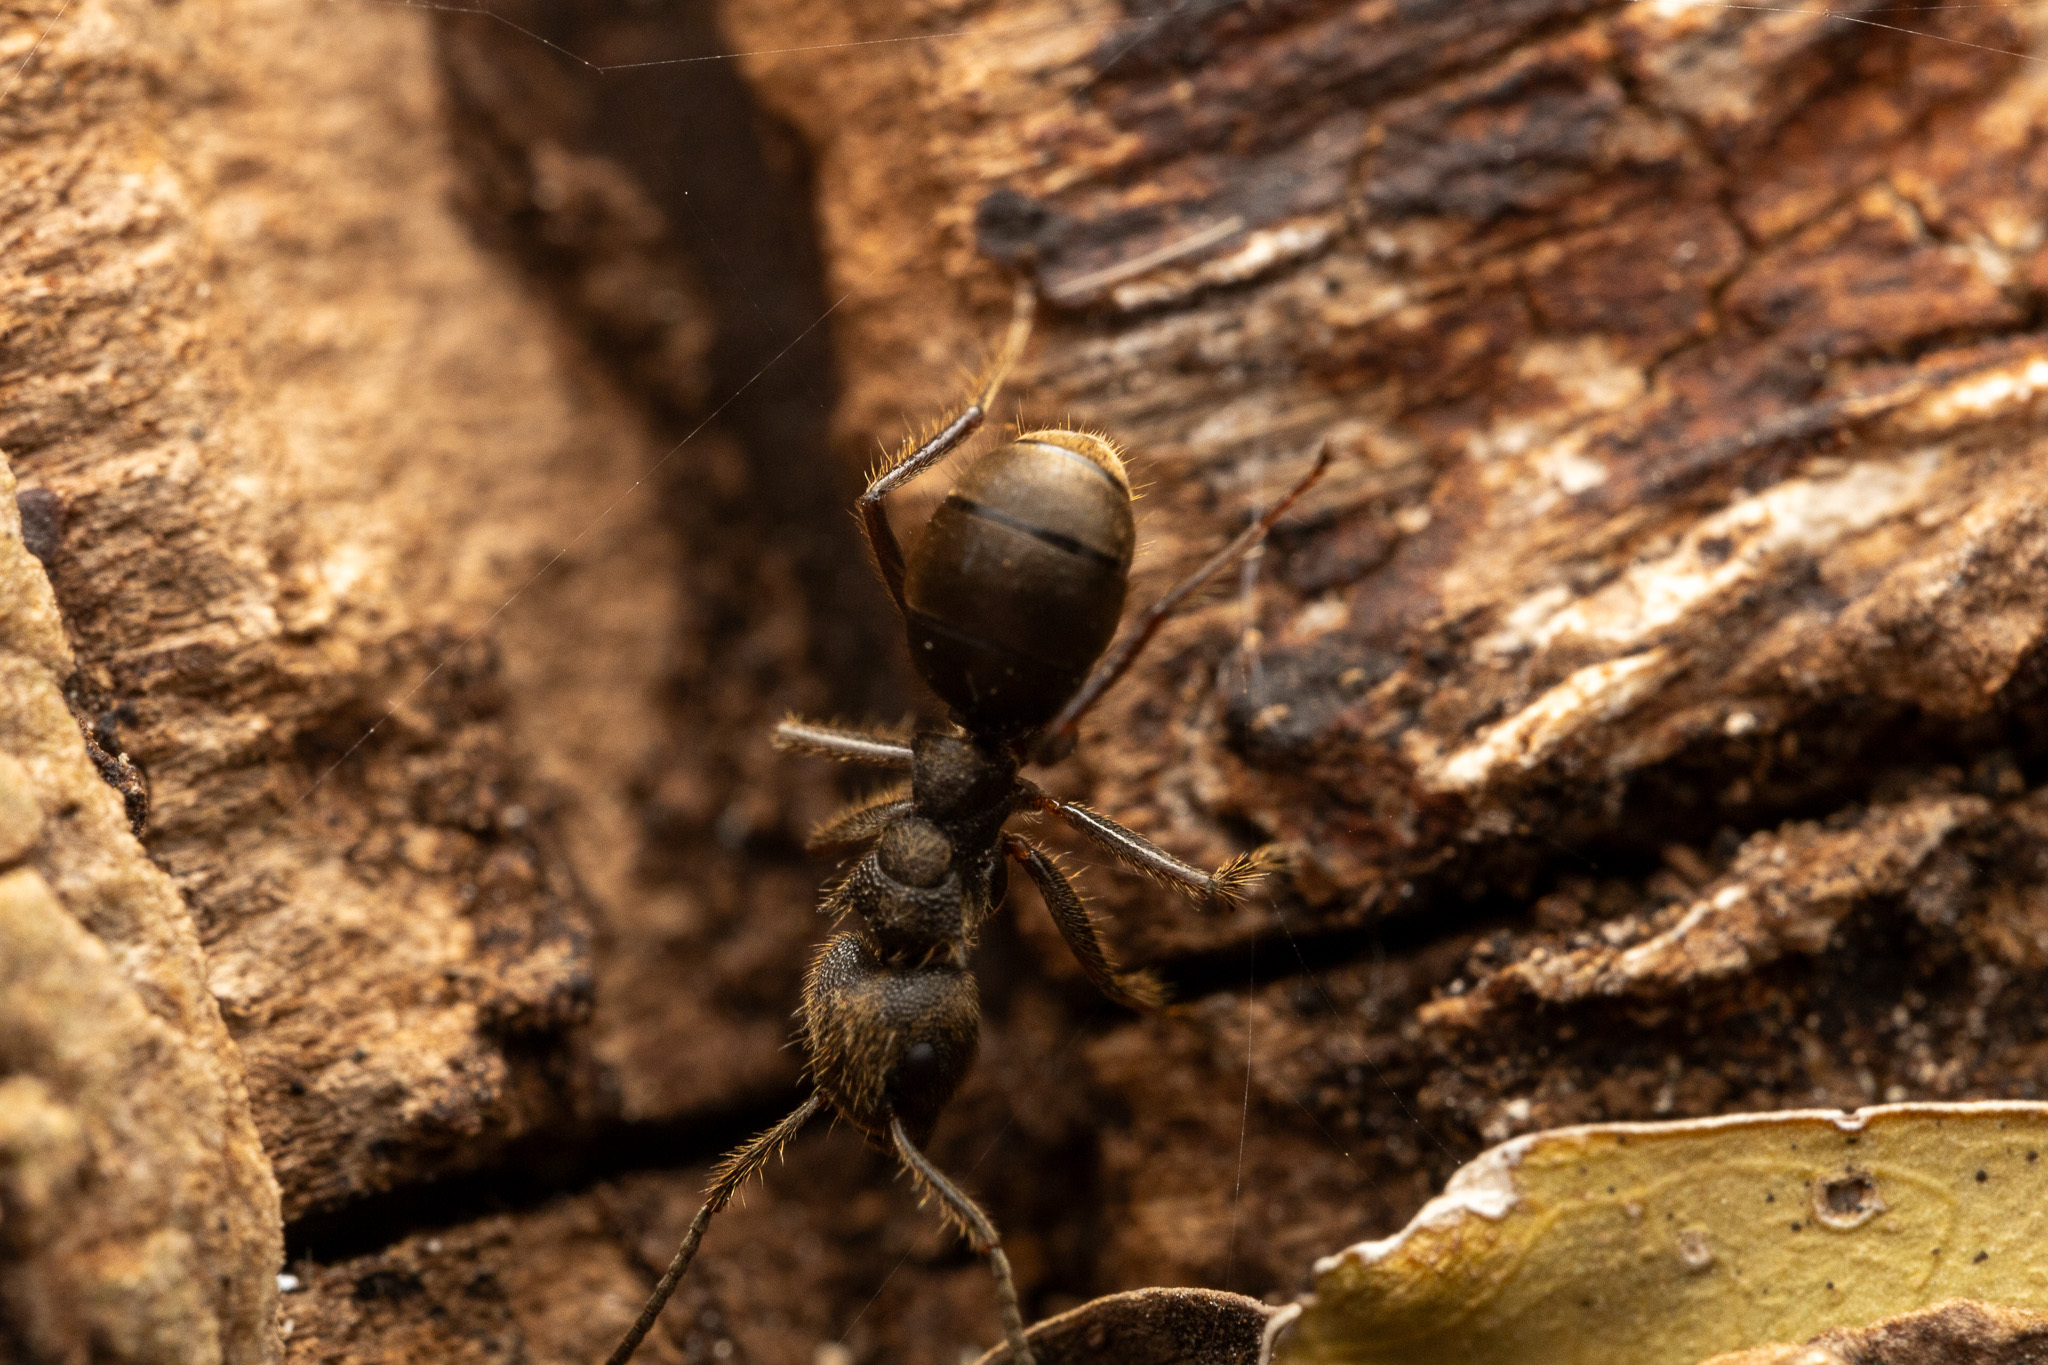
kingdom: Animalia
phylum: Arthropoda
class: Insecta
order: Hymenoptera
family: Formicidae
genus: Dolichoderus
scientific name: Dolichoderus bispinosus
